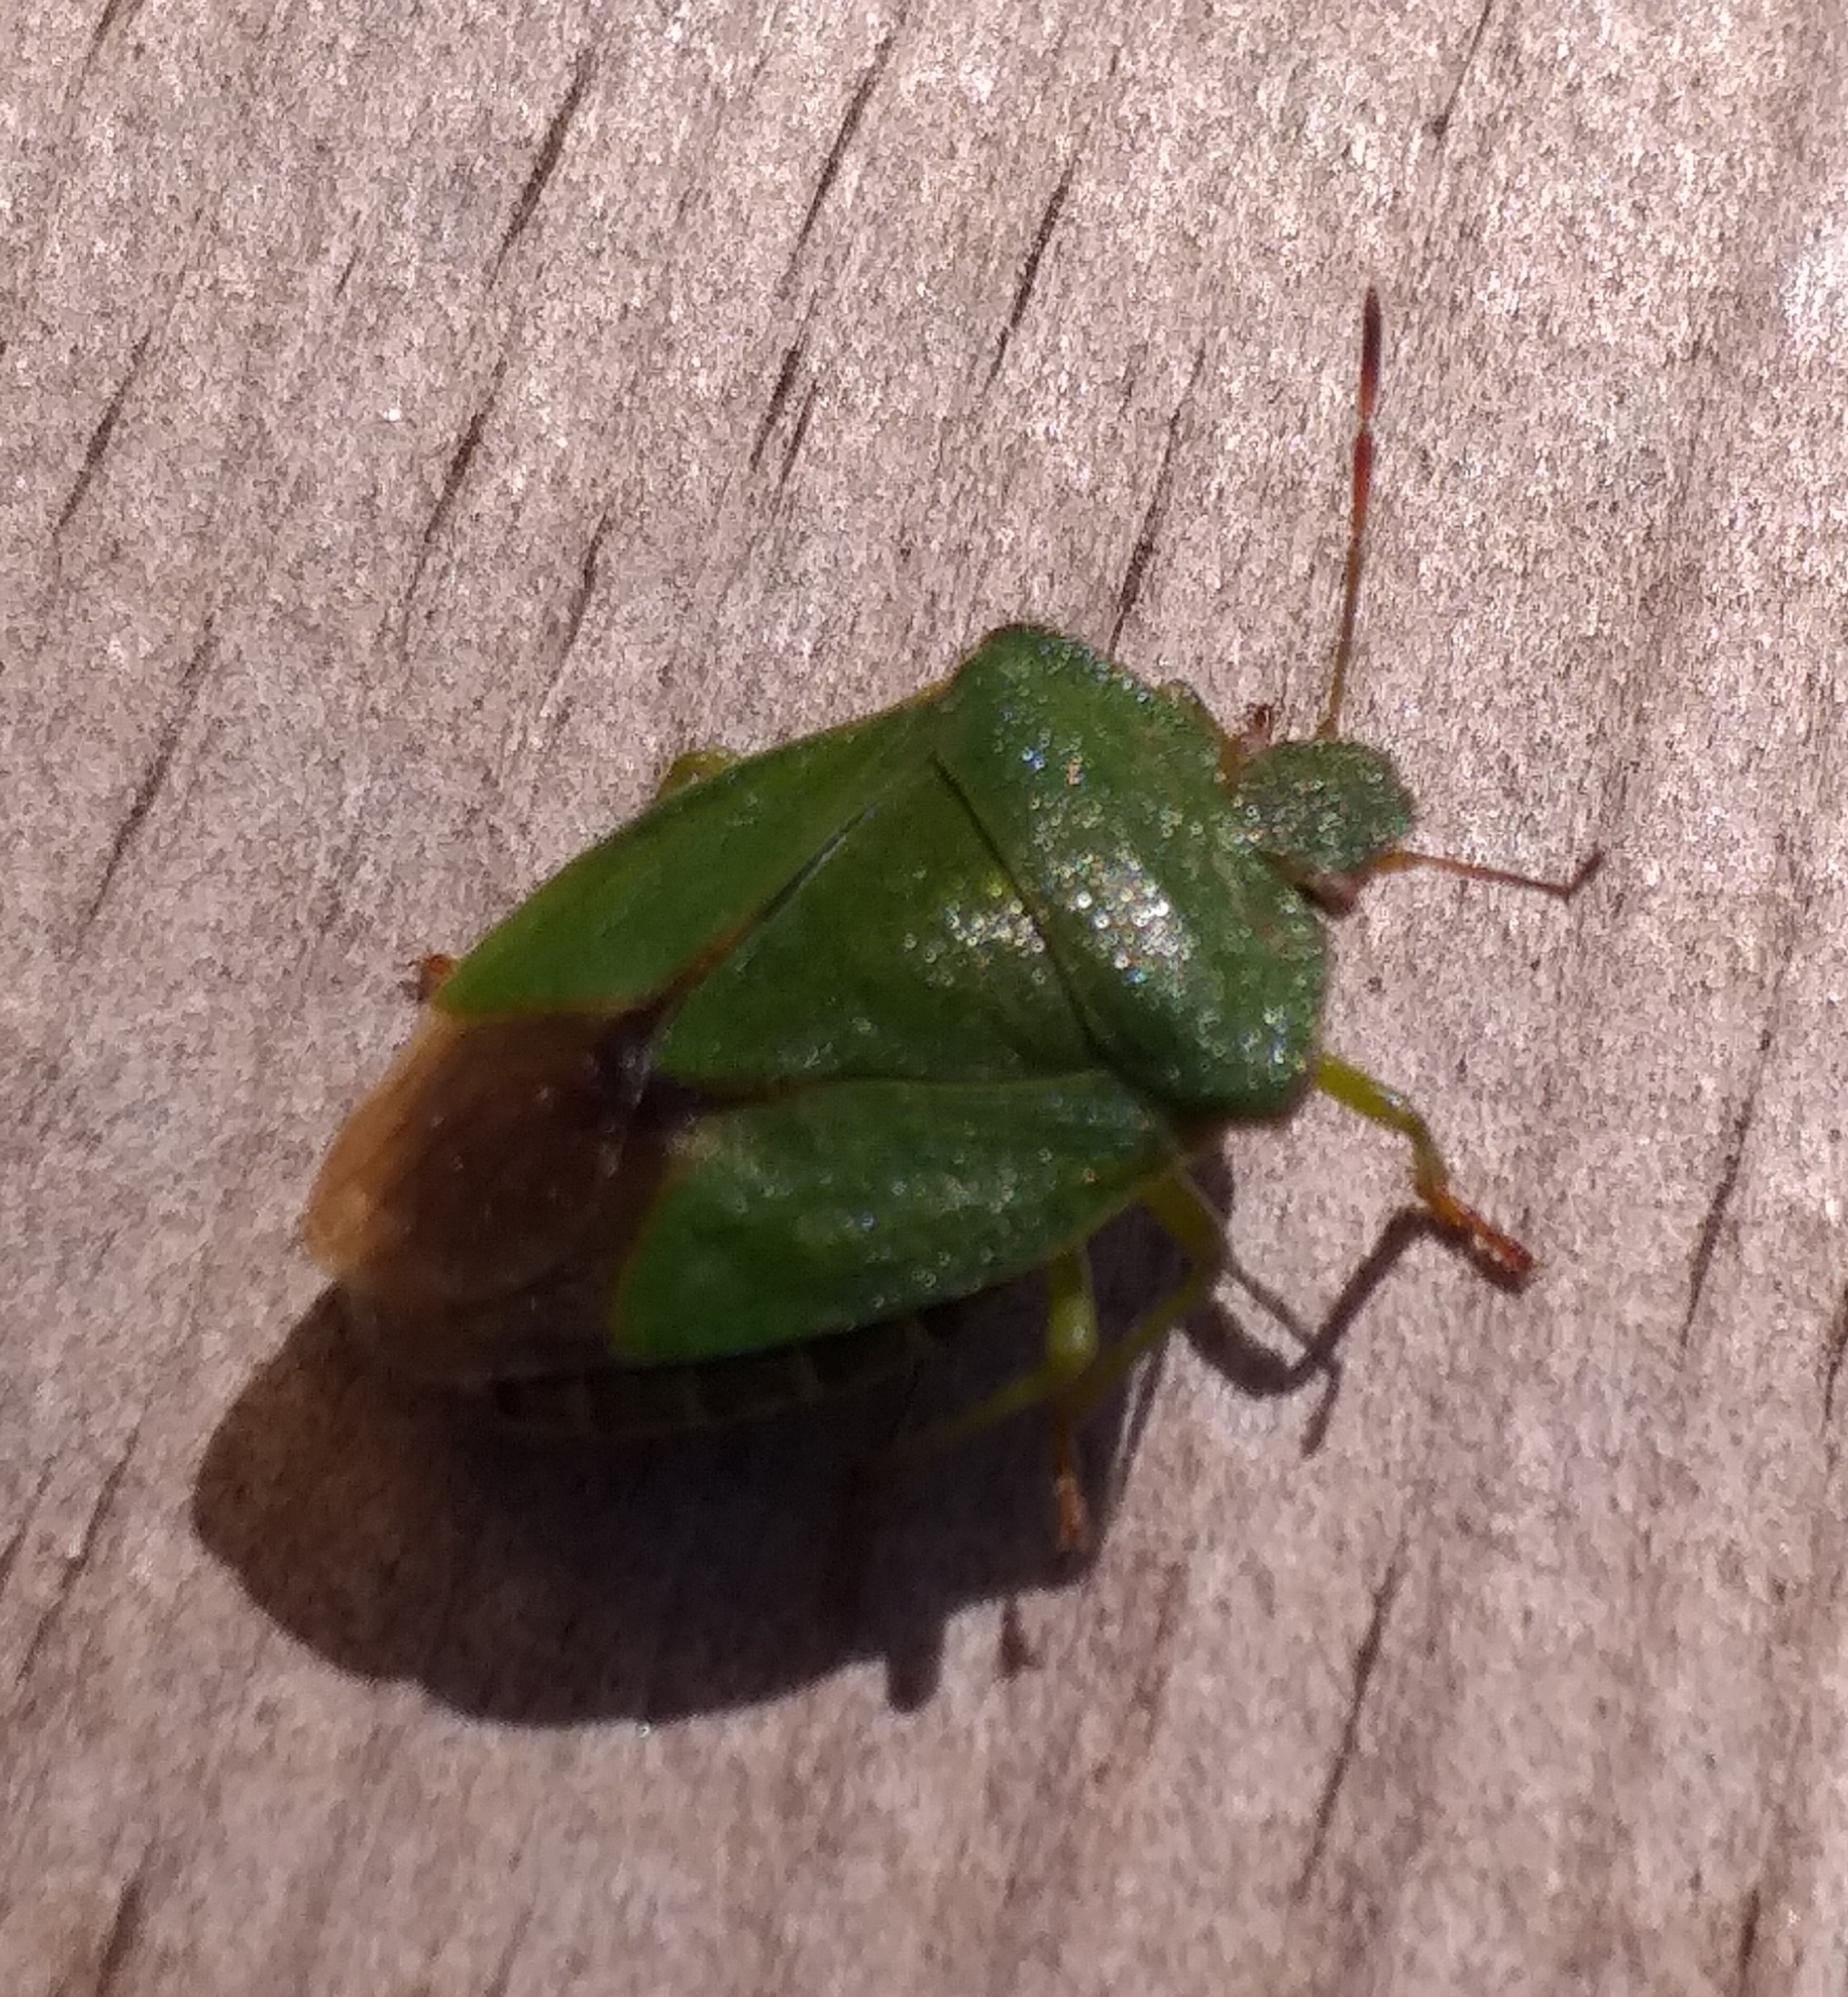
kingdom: Animalia
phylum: Arthropoda
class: Insecta
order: Hemiptera
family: Pentatomidae
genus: Palomena
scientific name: Palomena prasina
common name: Green shieldbug
